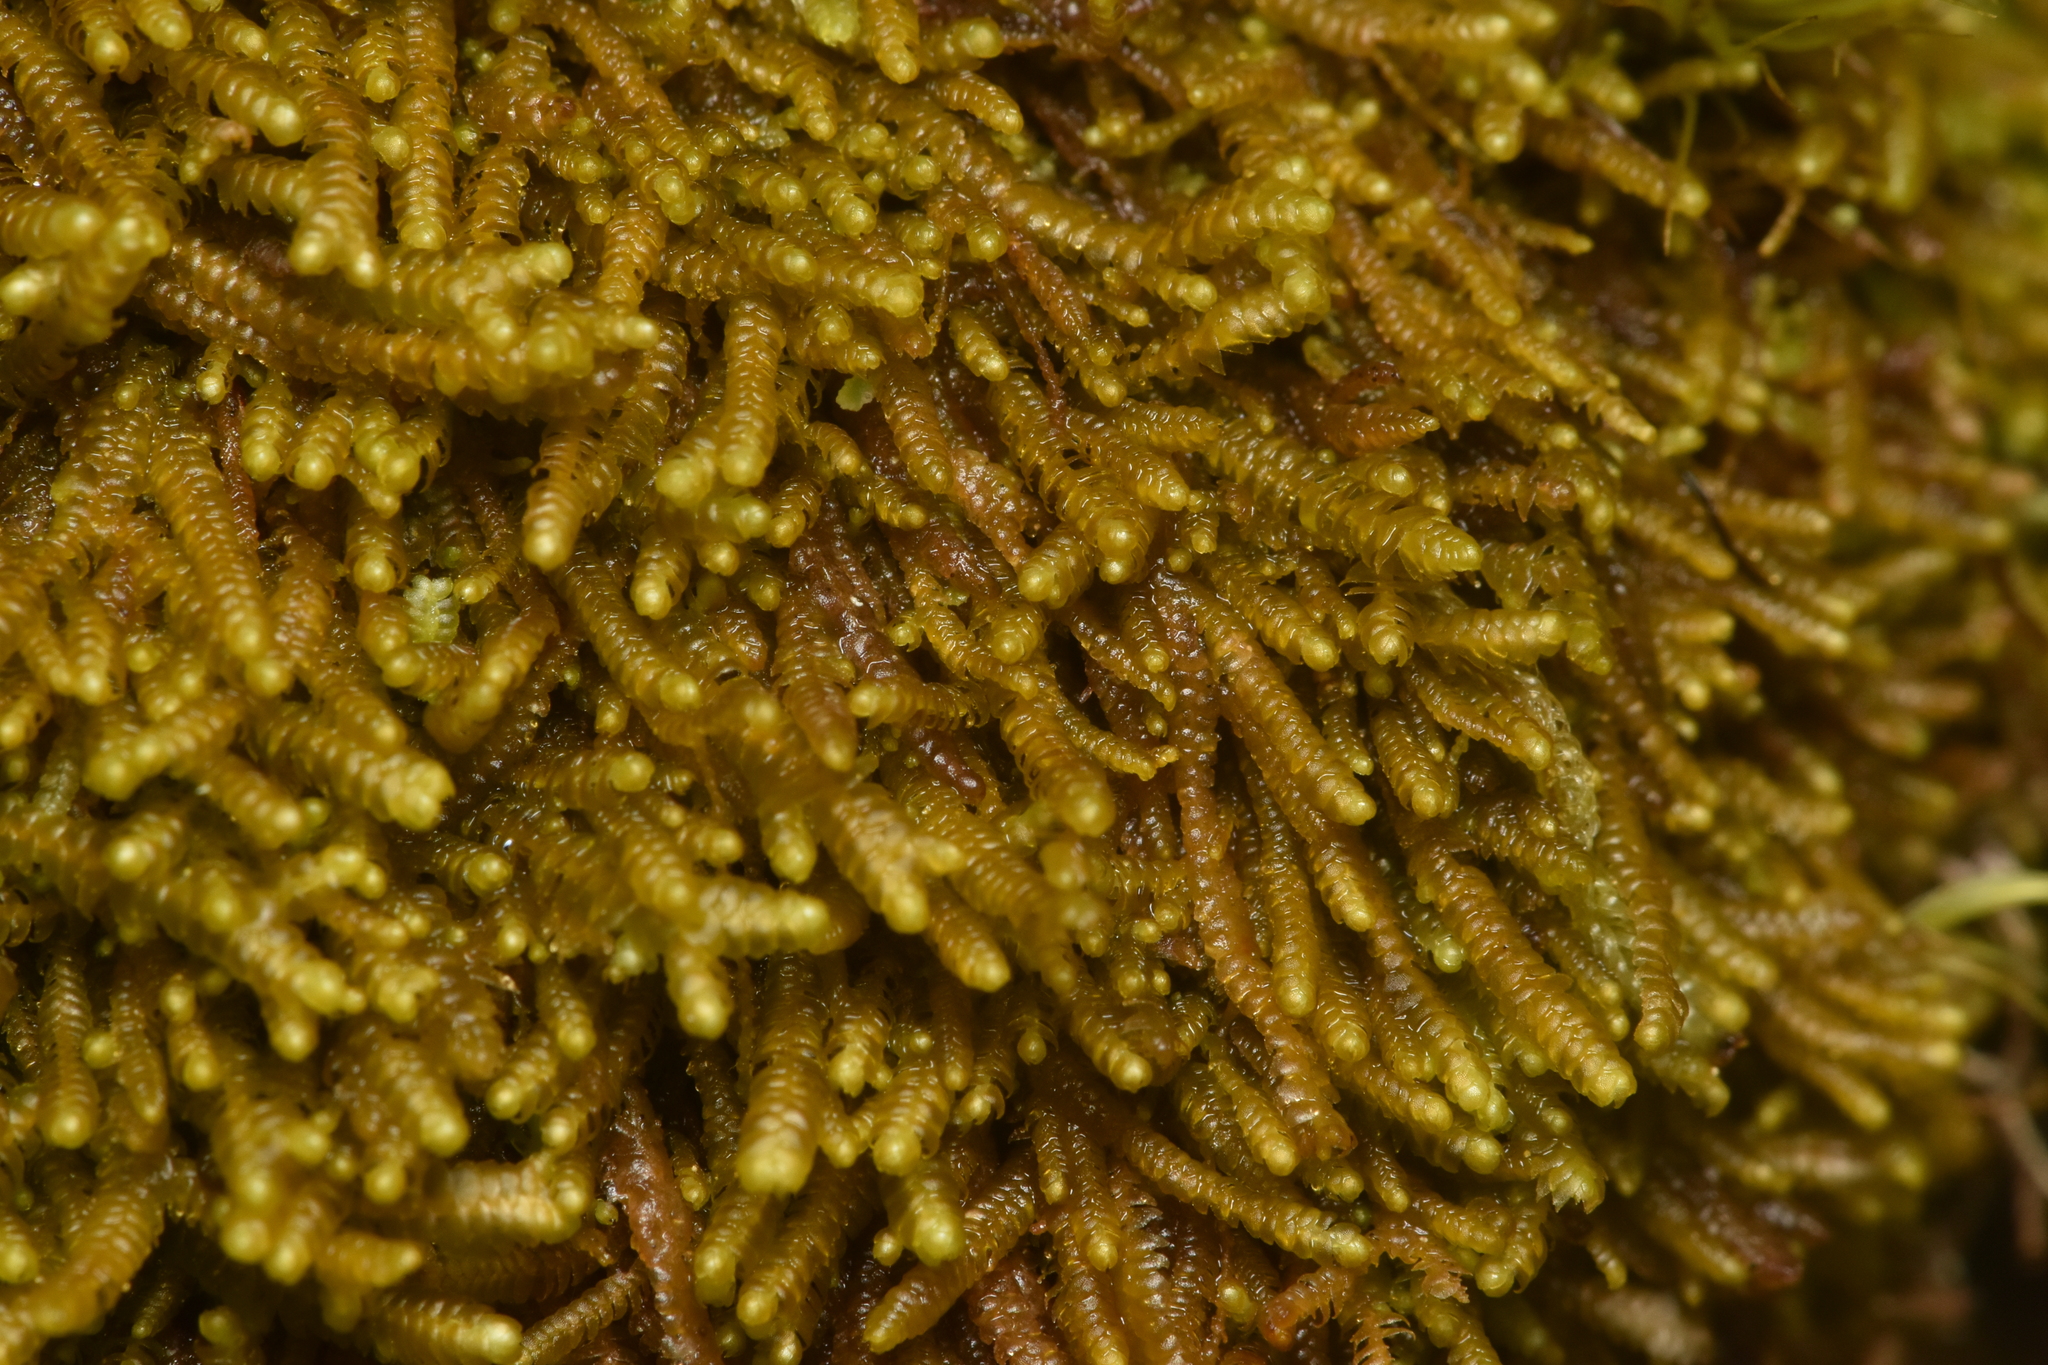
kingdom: Plantae
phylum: Marchantiophyta
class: Jungermanniopsida
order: Jungermanniales
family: Lepidoziaceae
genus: Bazzania
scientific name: Bazzania tricrenata
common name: Lesser whipwort
